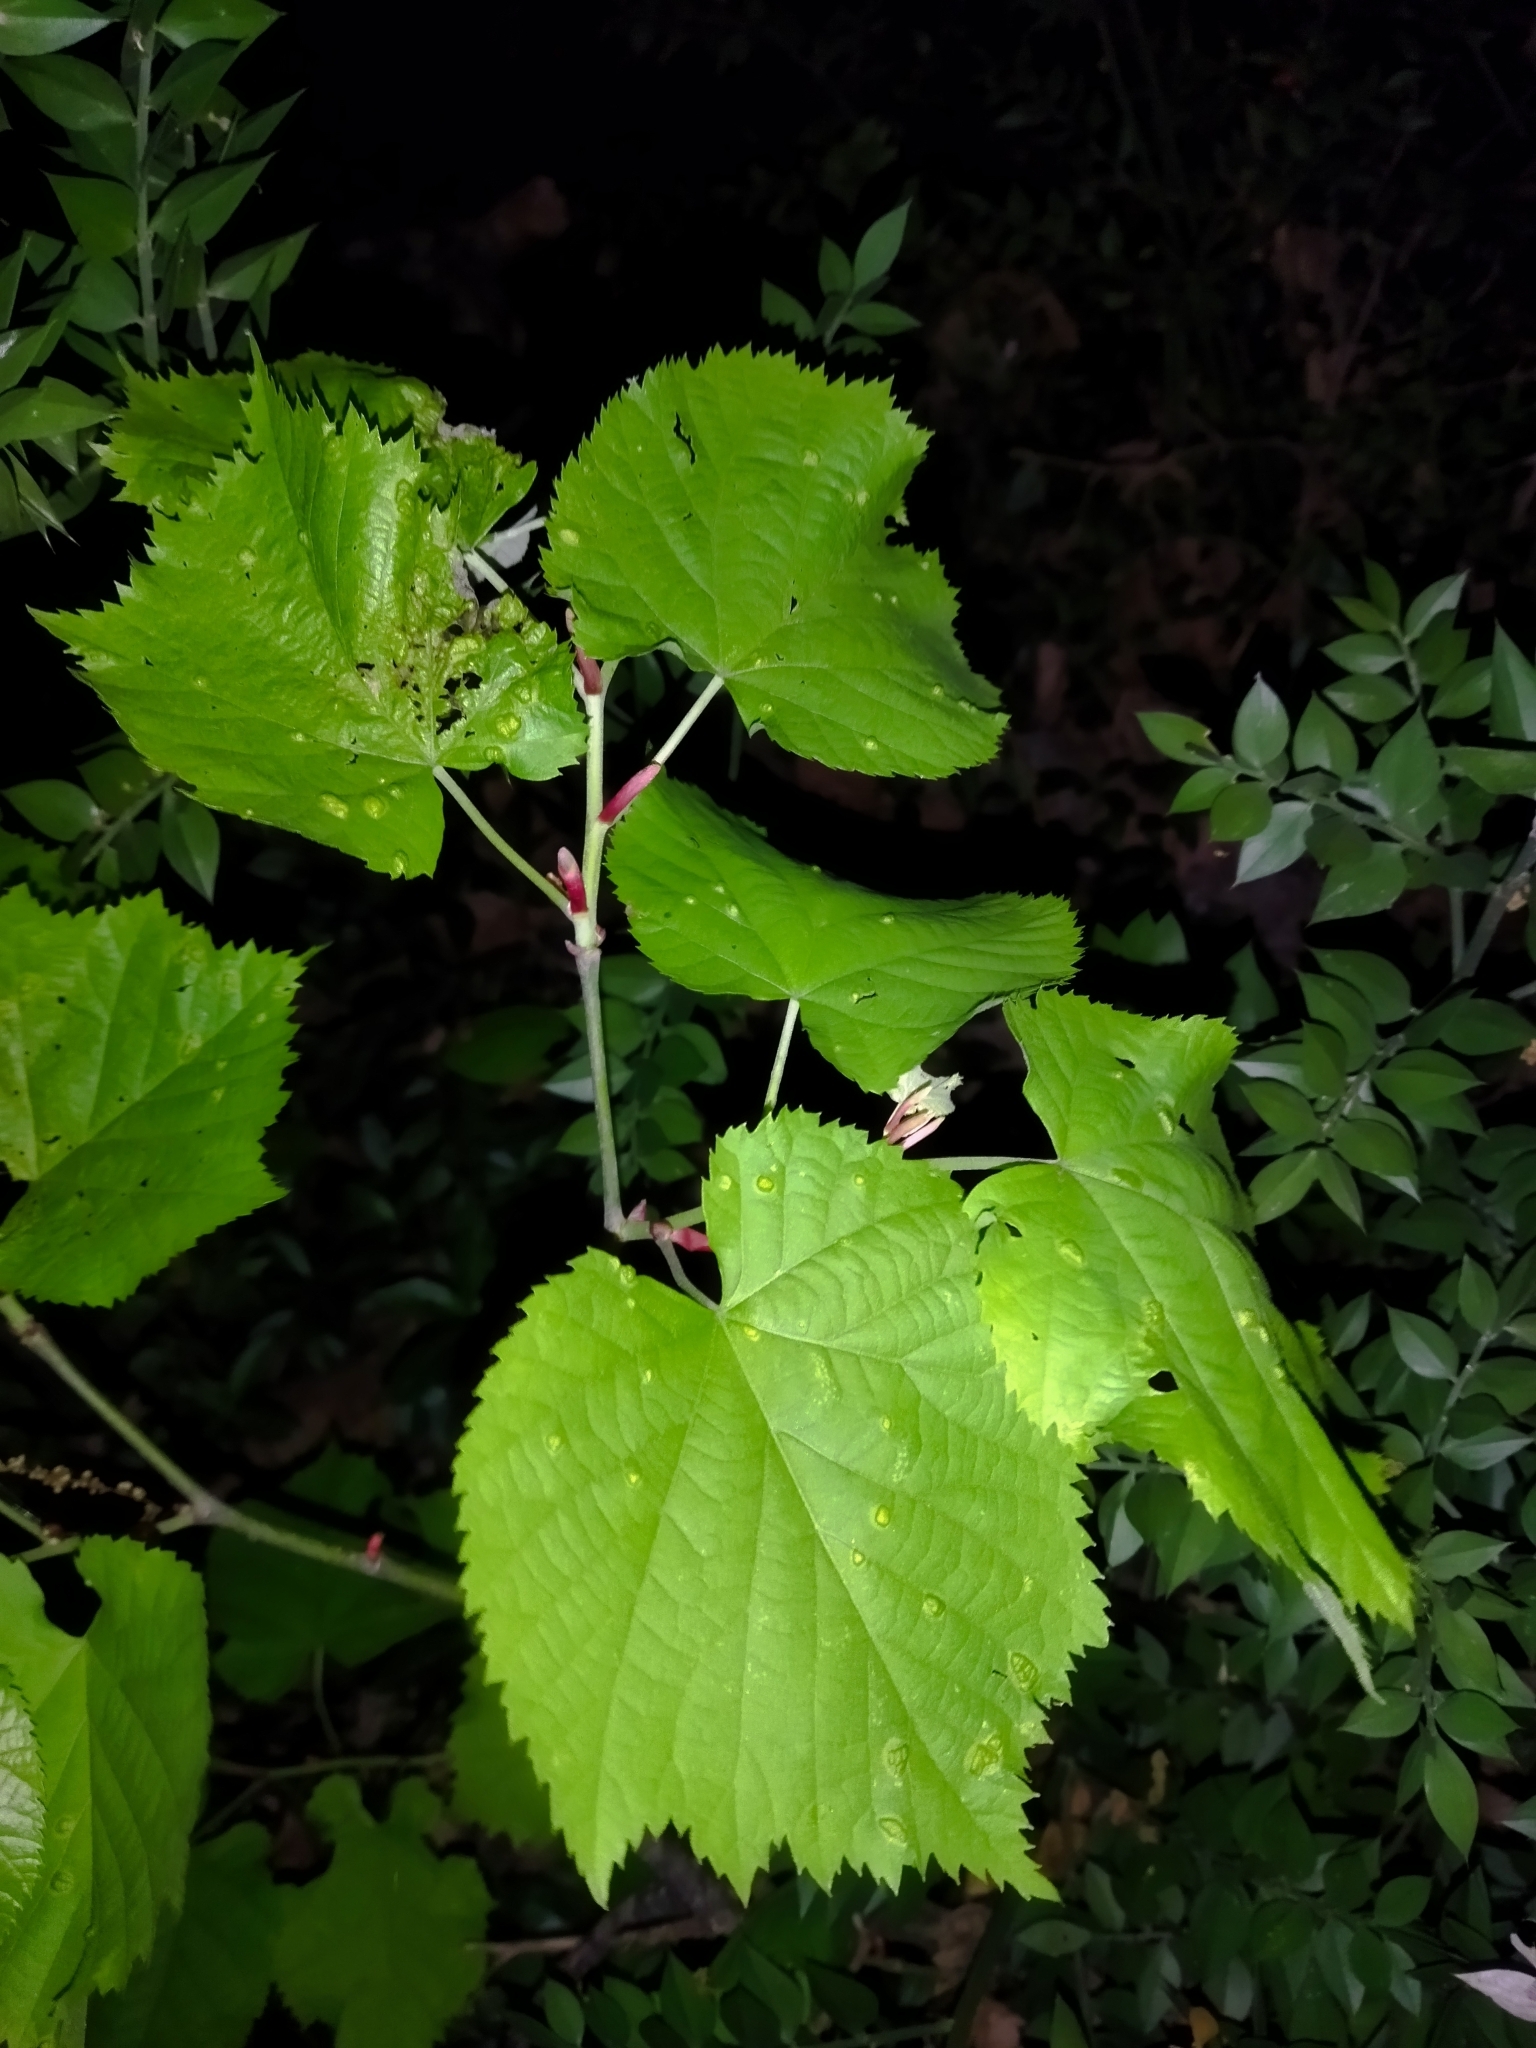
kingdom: Animalia
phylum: Arthropoda
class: Insecta
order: Diptera
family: Cecidomyiidae
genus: Didymomyia
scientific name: Didymomyia tiliacea
